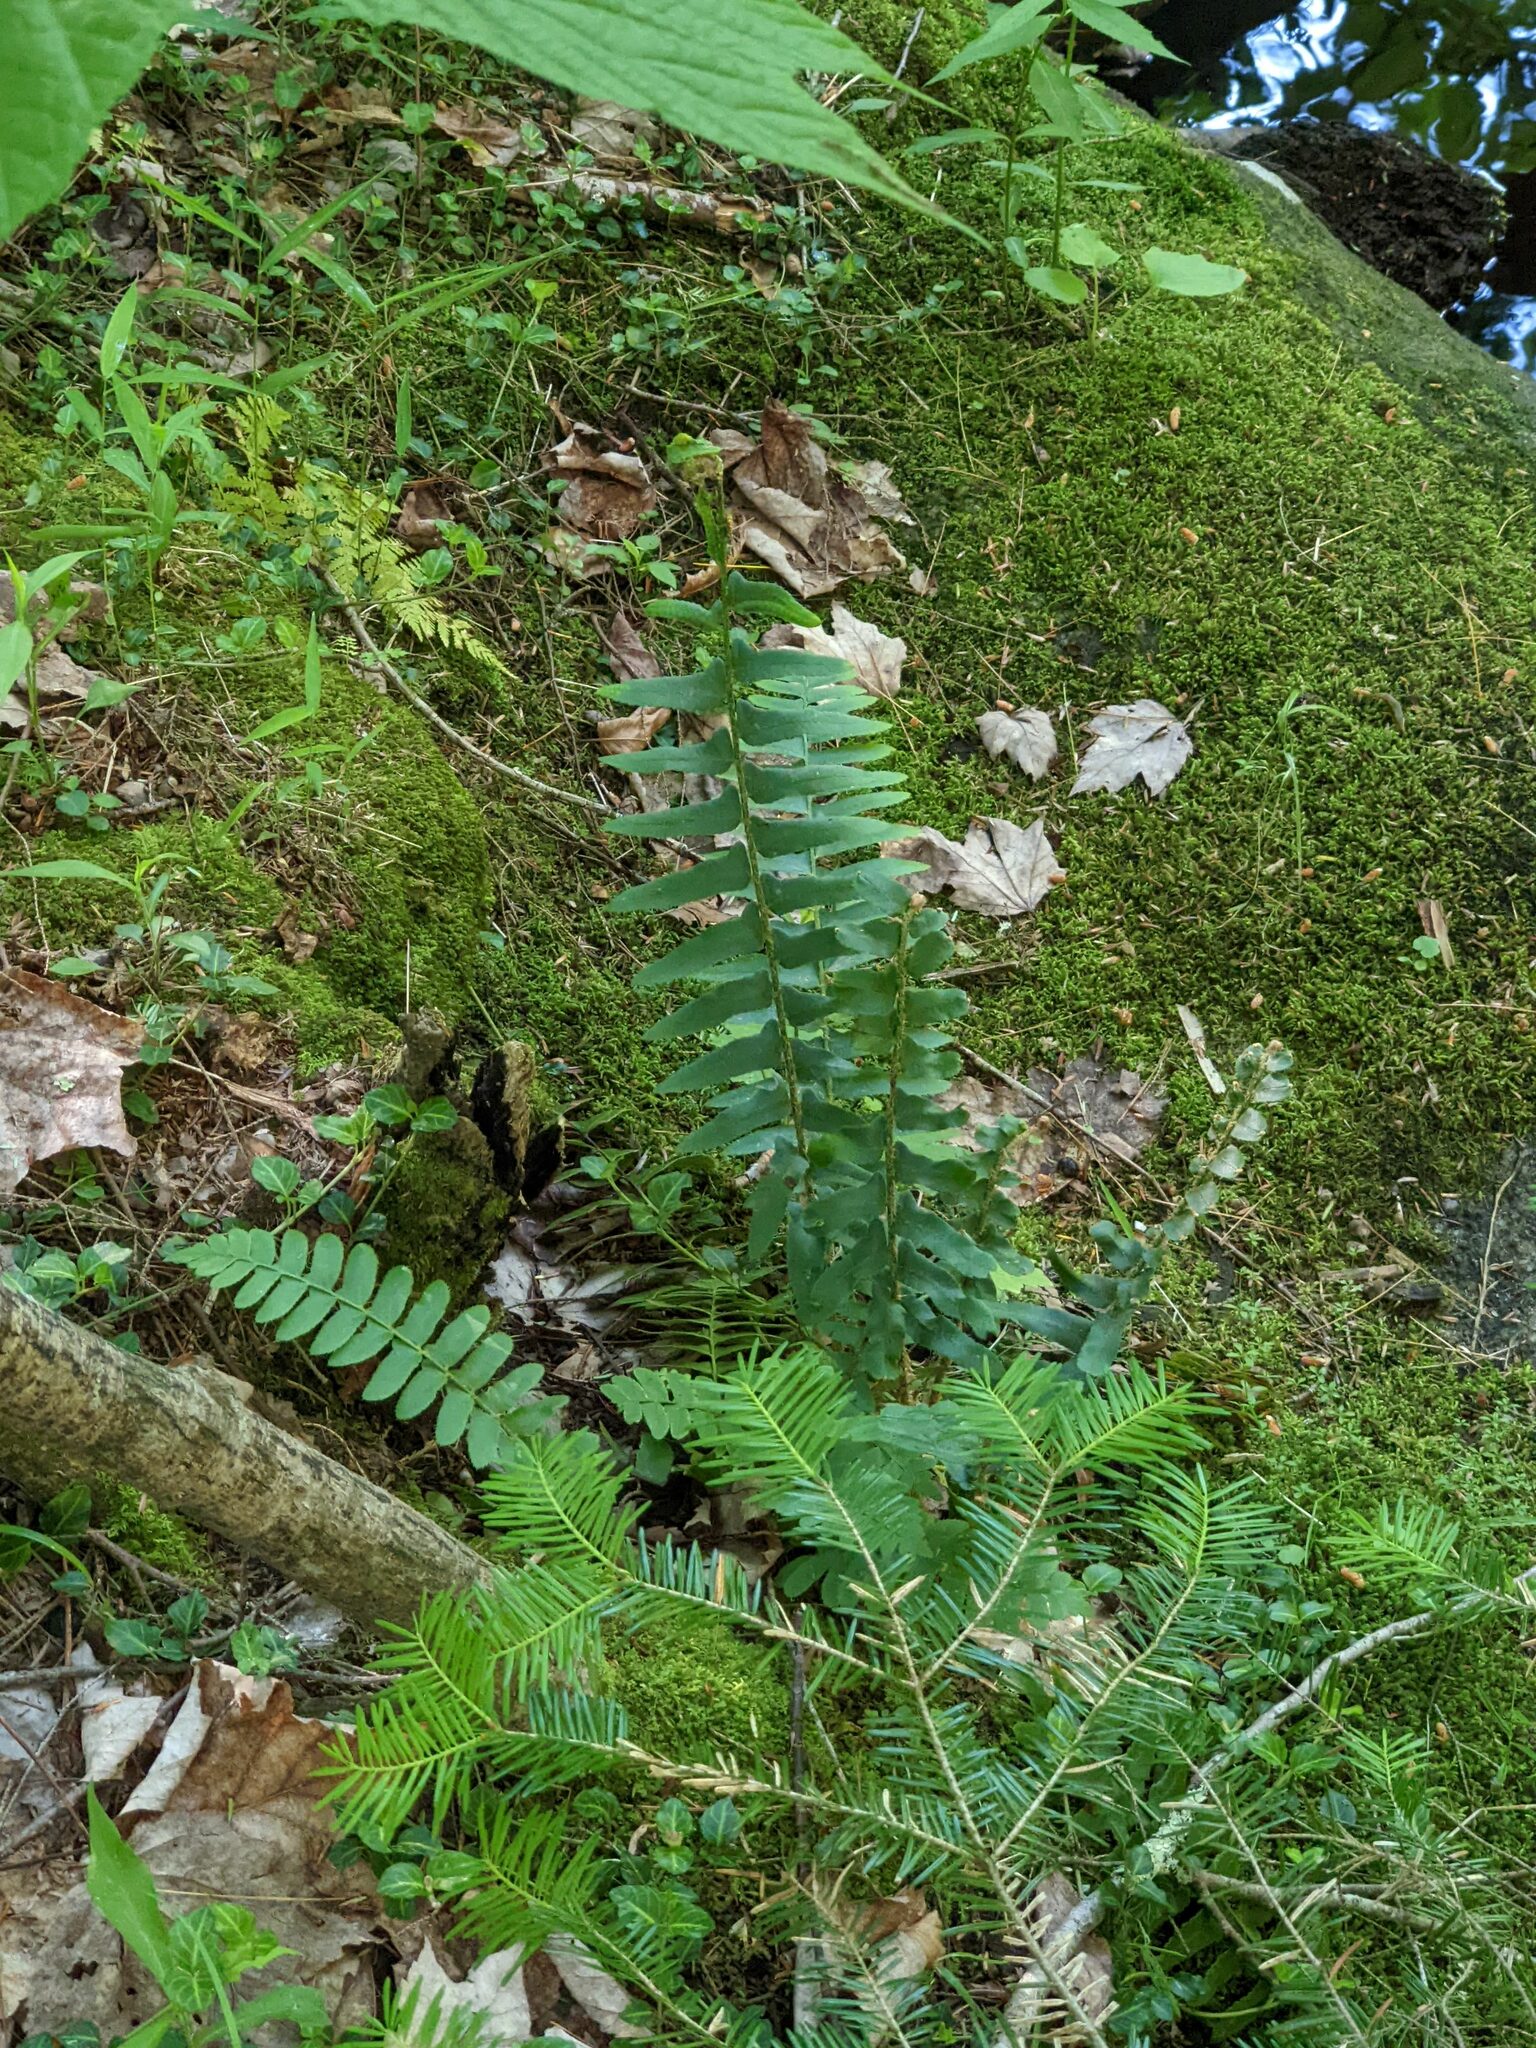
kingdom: Plantae
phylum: Tracheophyta
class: Polypodiopsida
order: Polypodiales
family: Dryopteridaceae
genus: Polystichum
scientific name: Polystichum acrostichoides
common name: Christmas fern
